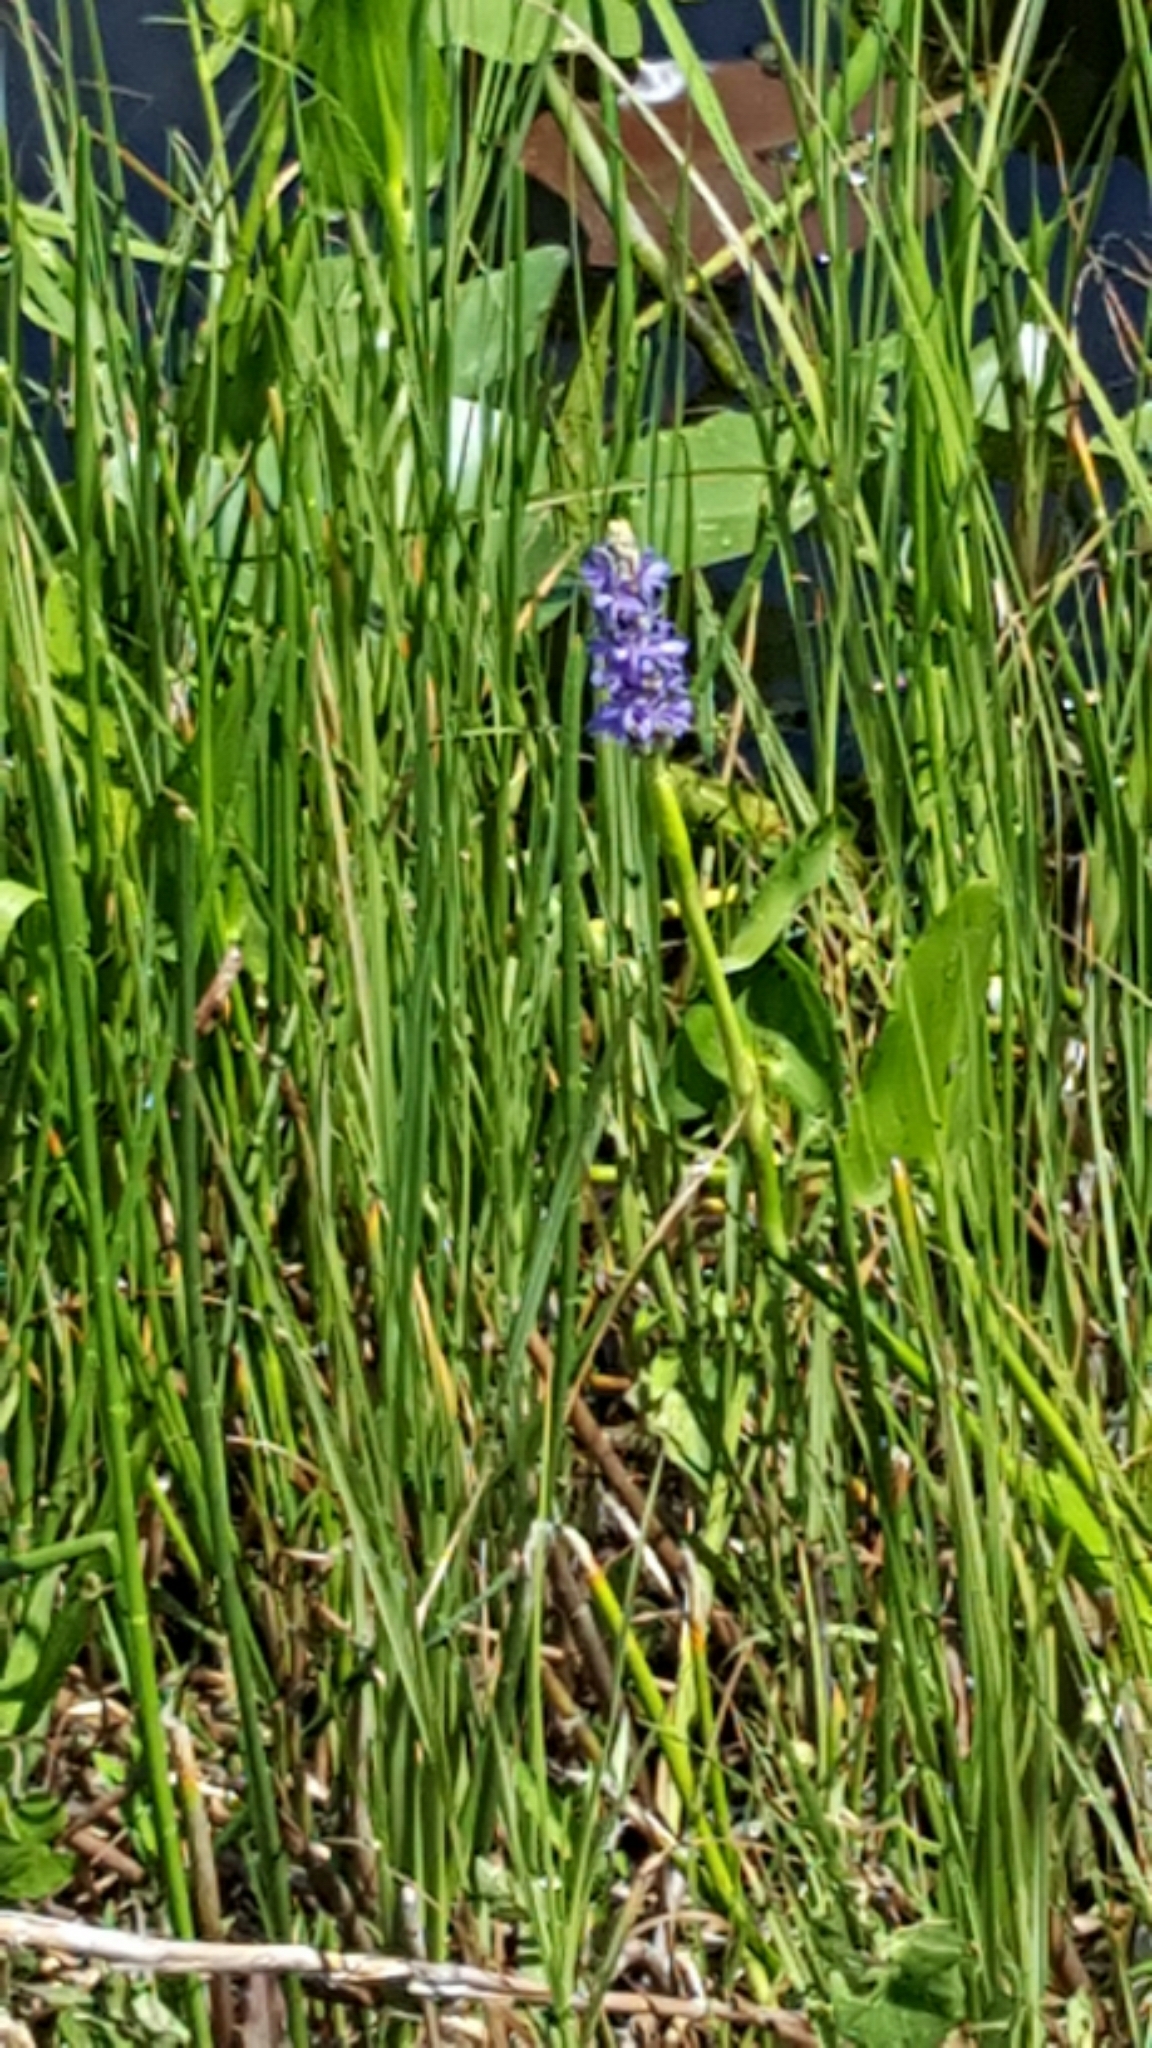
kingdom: Plantae
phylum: Tracheophyta
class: Liliopsida
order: Commelinales
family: Pontederiaceae
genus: Pontederia
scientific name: Pontederia cordata
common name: Pickerelweed
